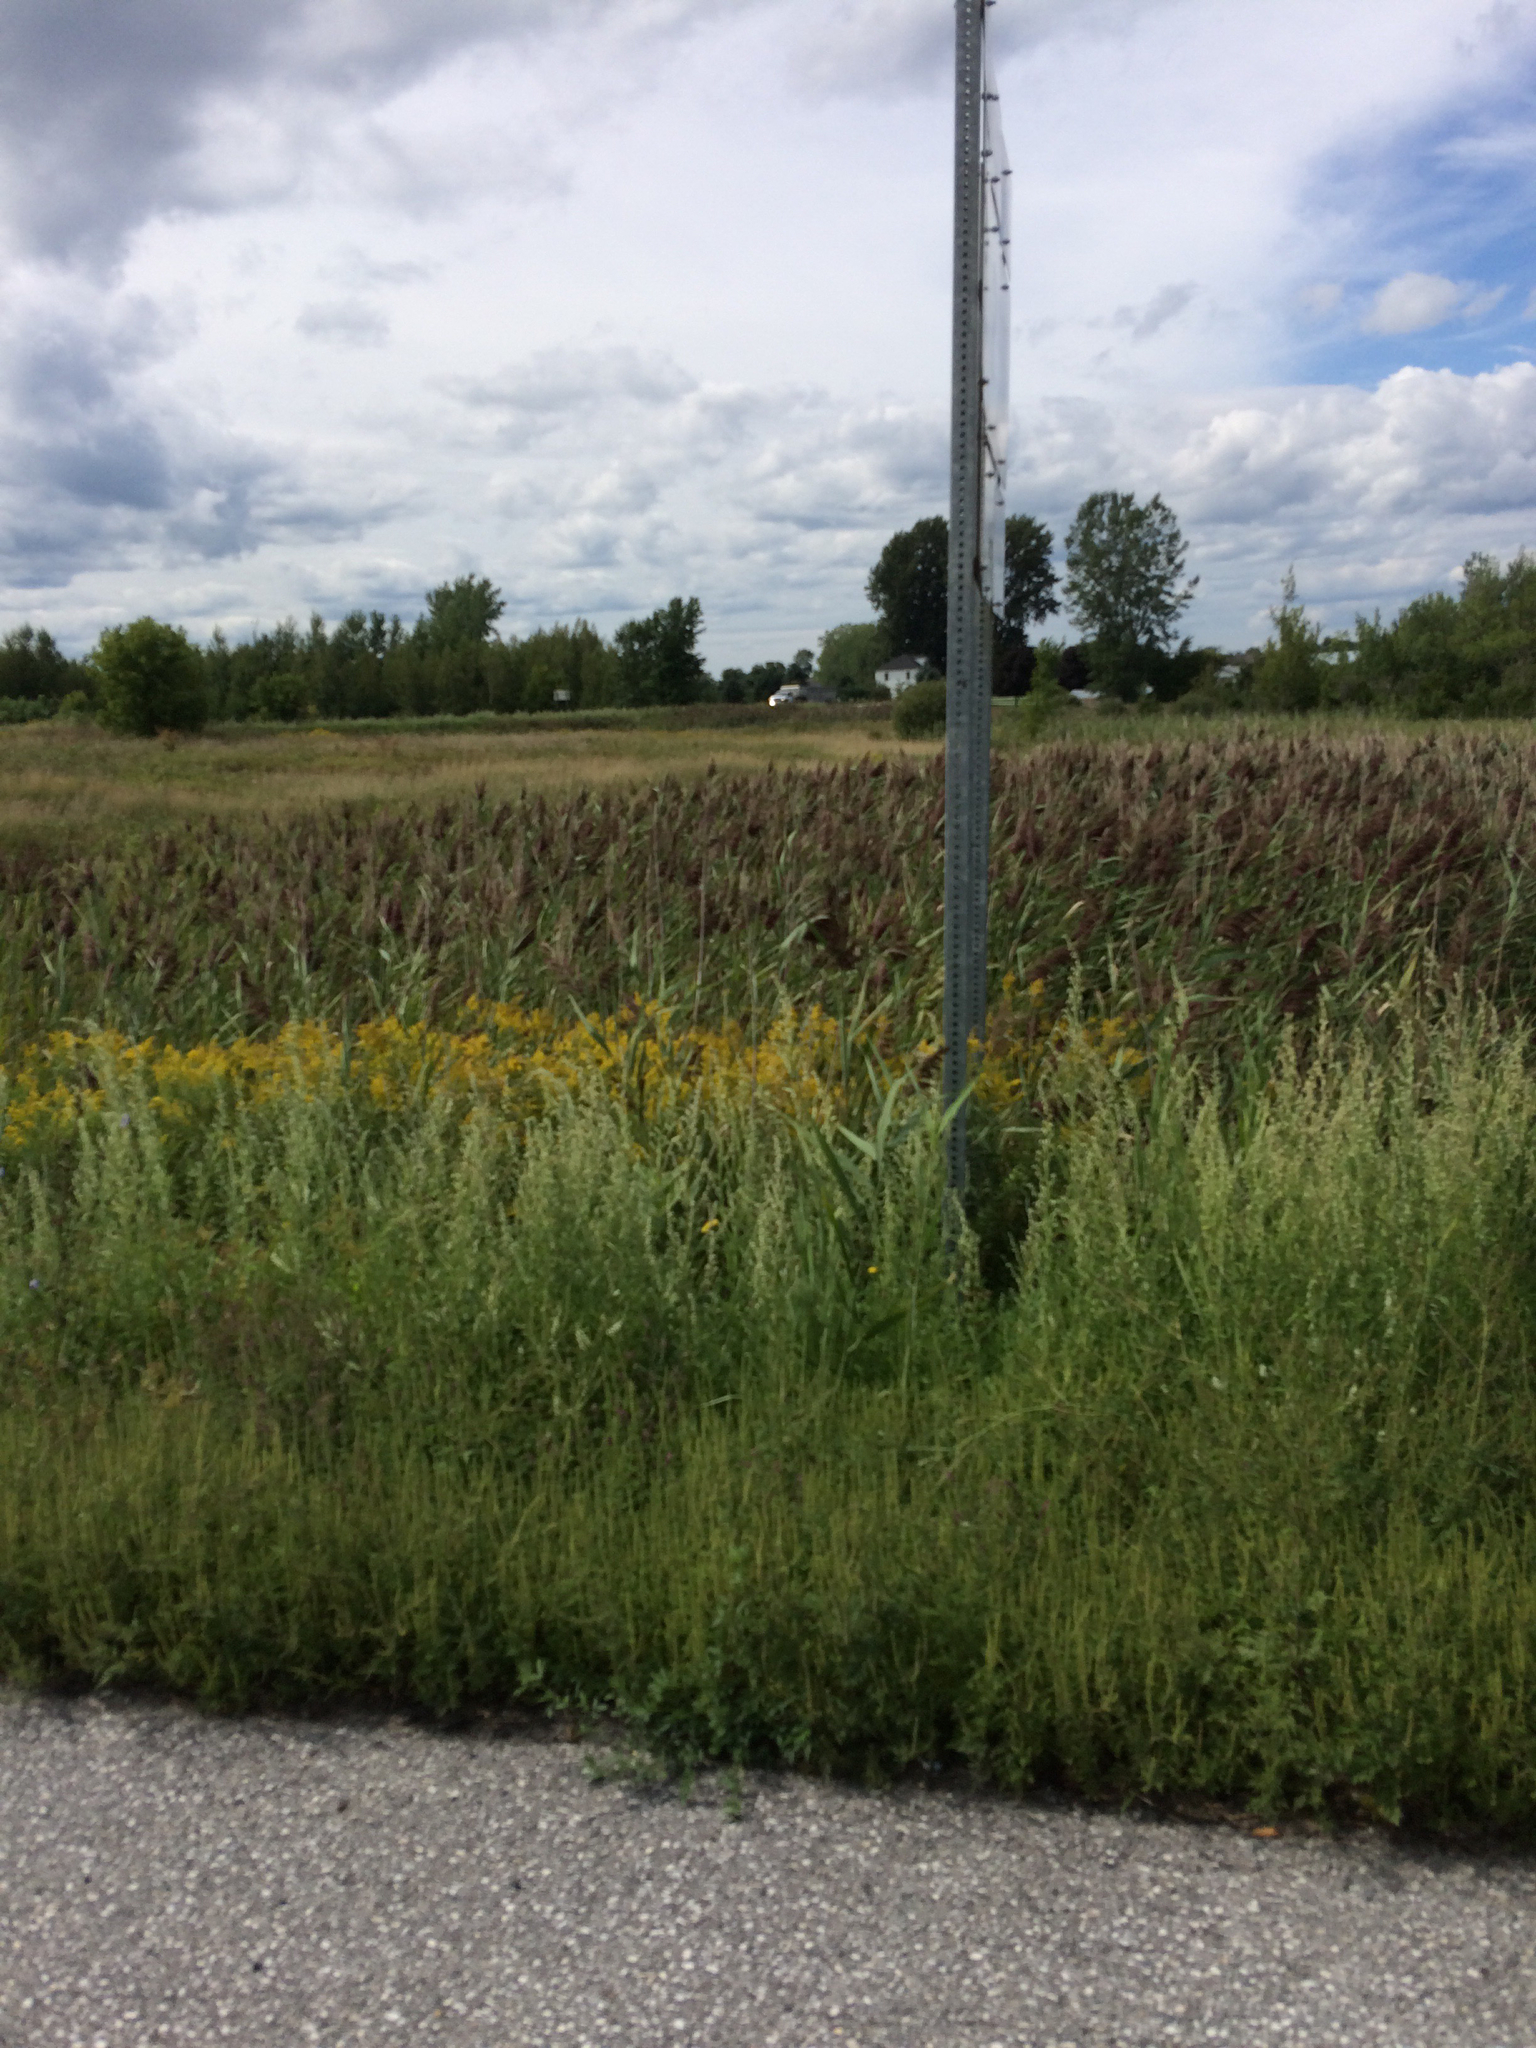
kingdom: Plantae
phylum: Tracheophyta
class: Liliopsida
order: Poales
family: Poaceae
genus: Phragmites
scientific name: Phragmites australis
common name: Common reed
